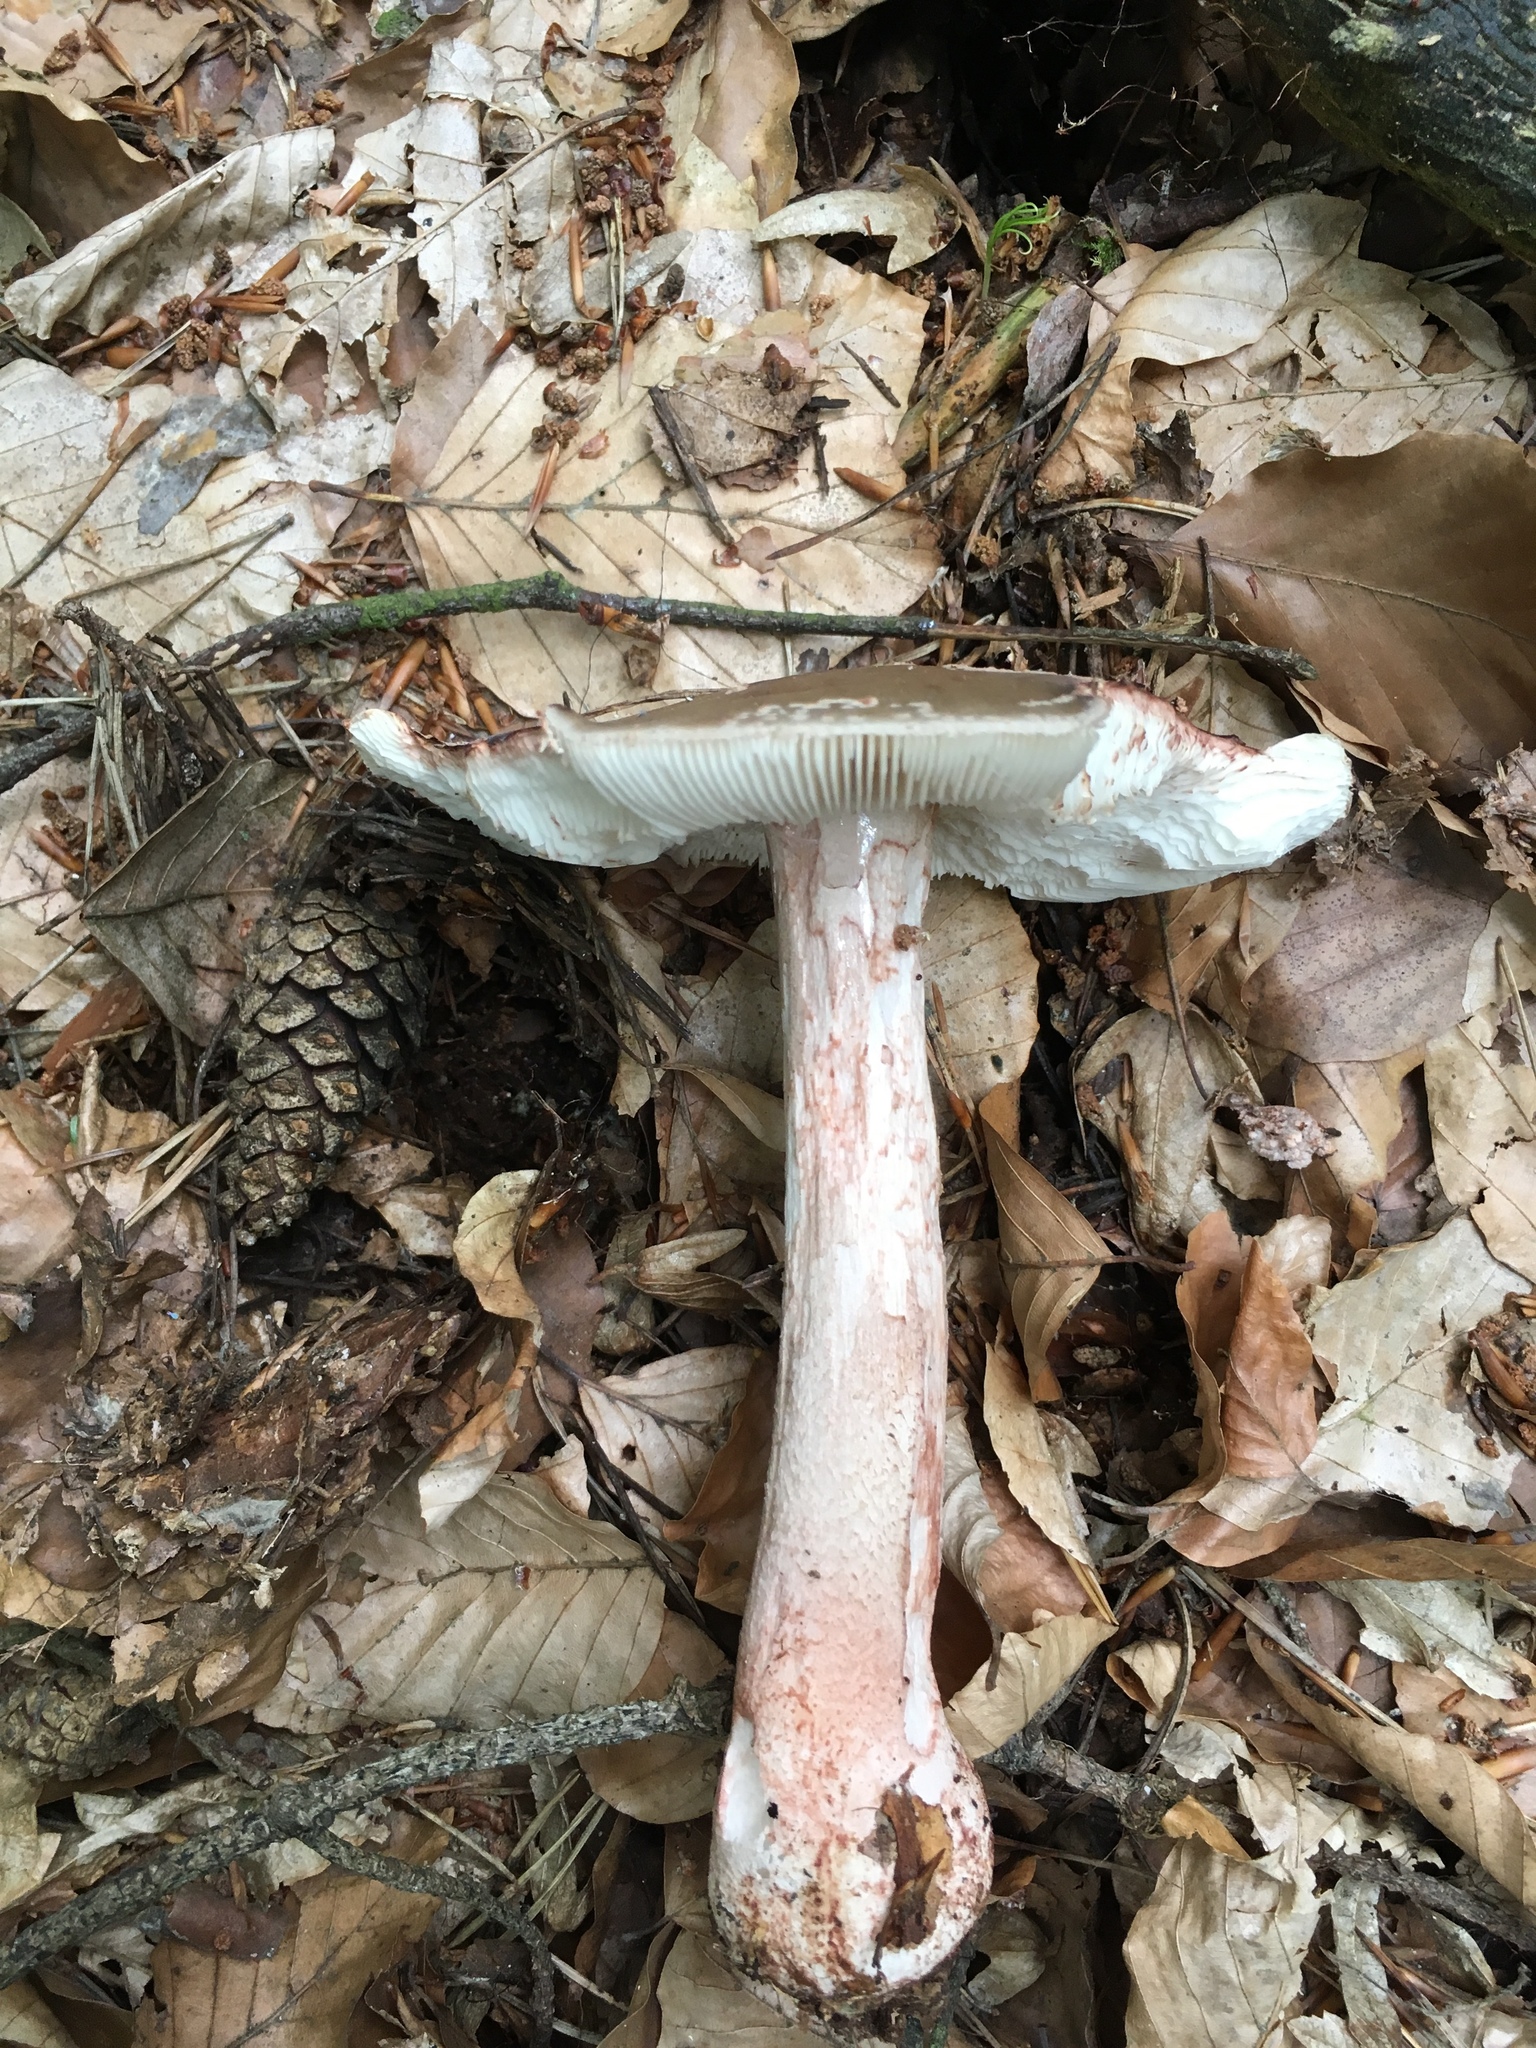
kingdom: Fungi
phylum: Basidiomycota
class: Agaricomycetes
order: Agaricales
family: Amanitaceae
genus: Amanita
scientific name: Amanita rubescens
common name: Blusher
